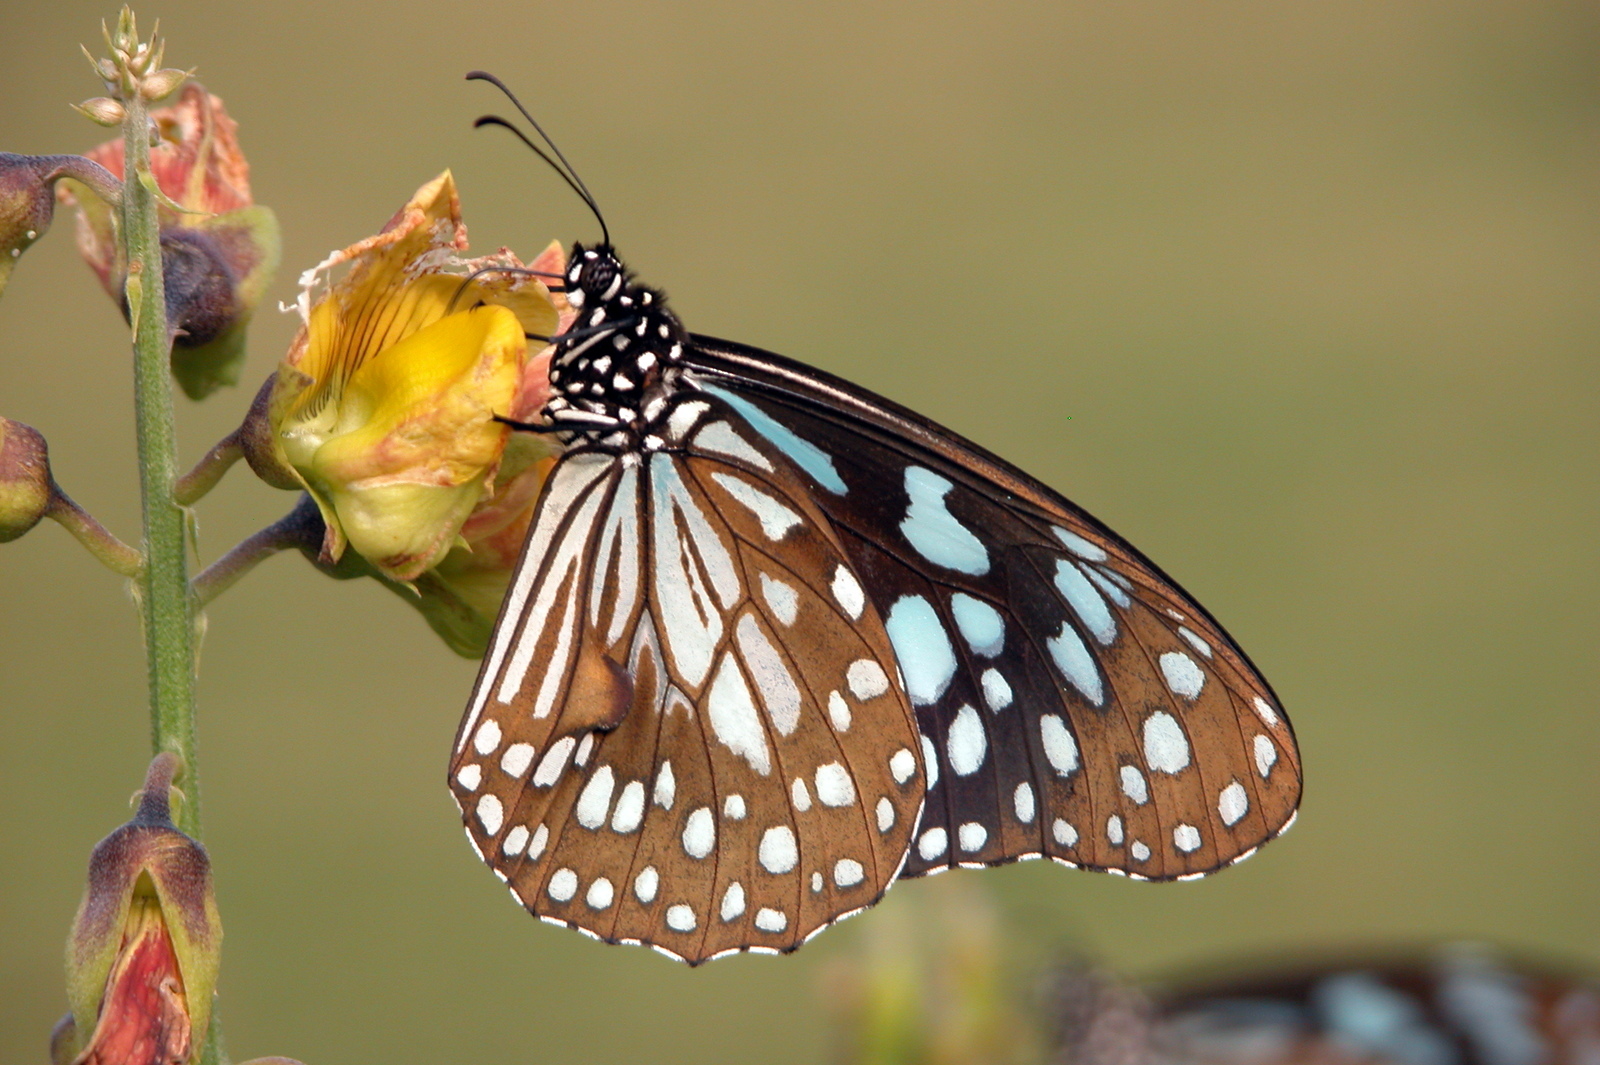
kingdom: Animalia
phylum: Arthropoda
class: Insecta
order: Lepidoptera
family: Nymphalidae
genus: Tirumala
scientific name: Tirumala limniace
